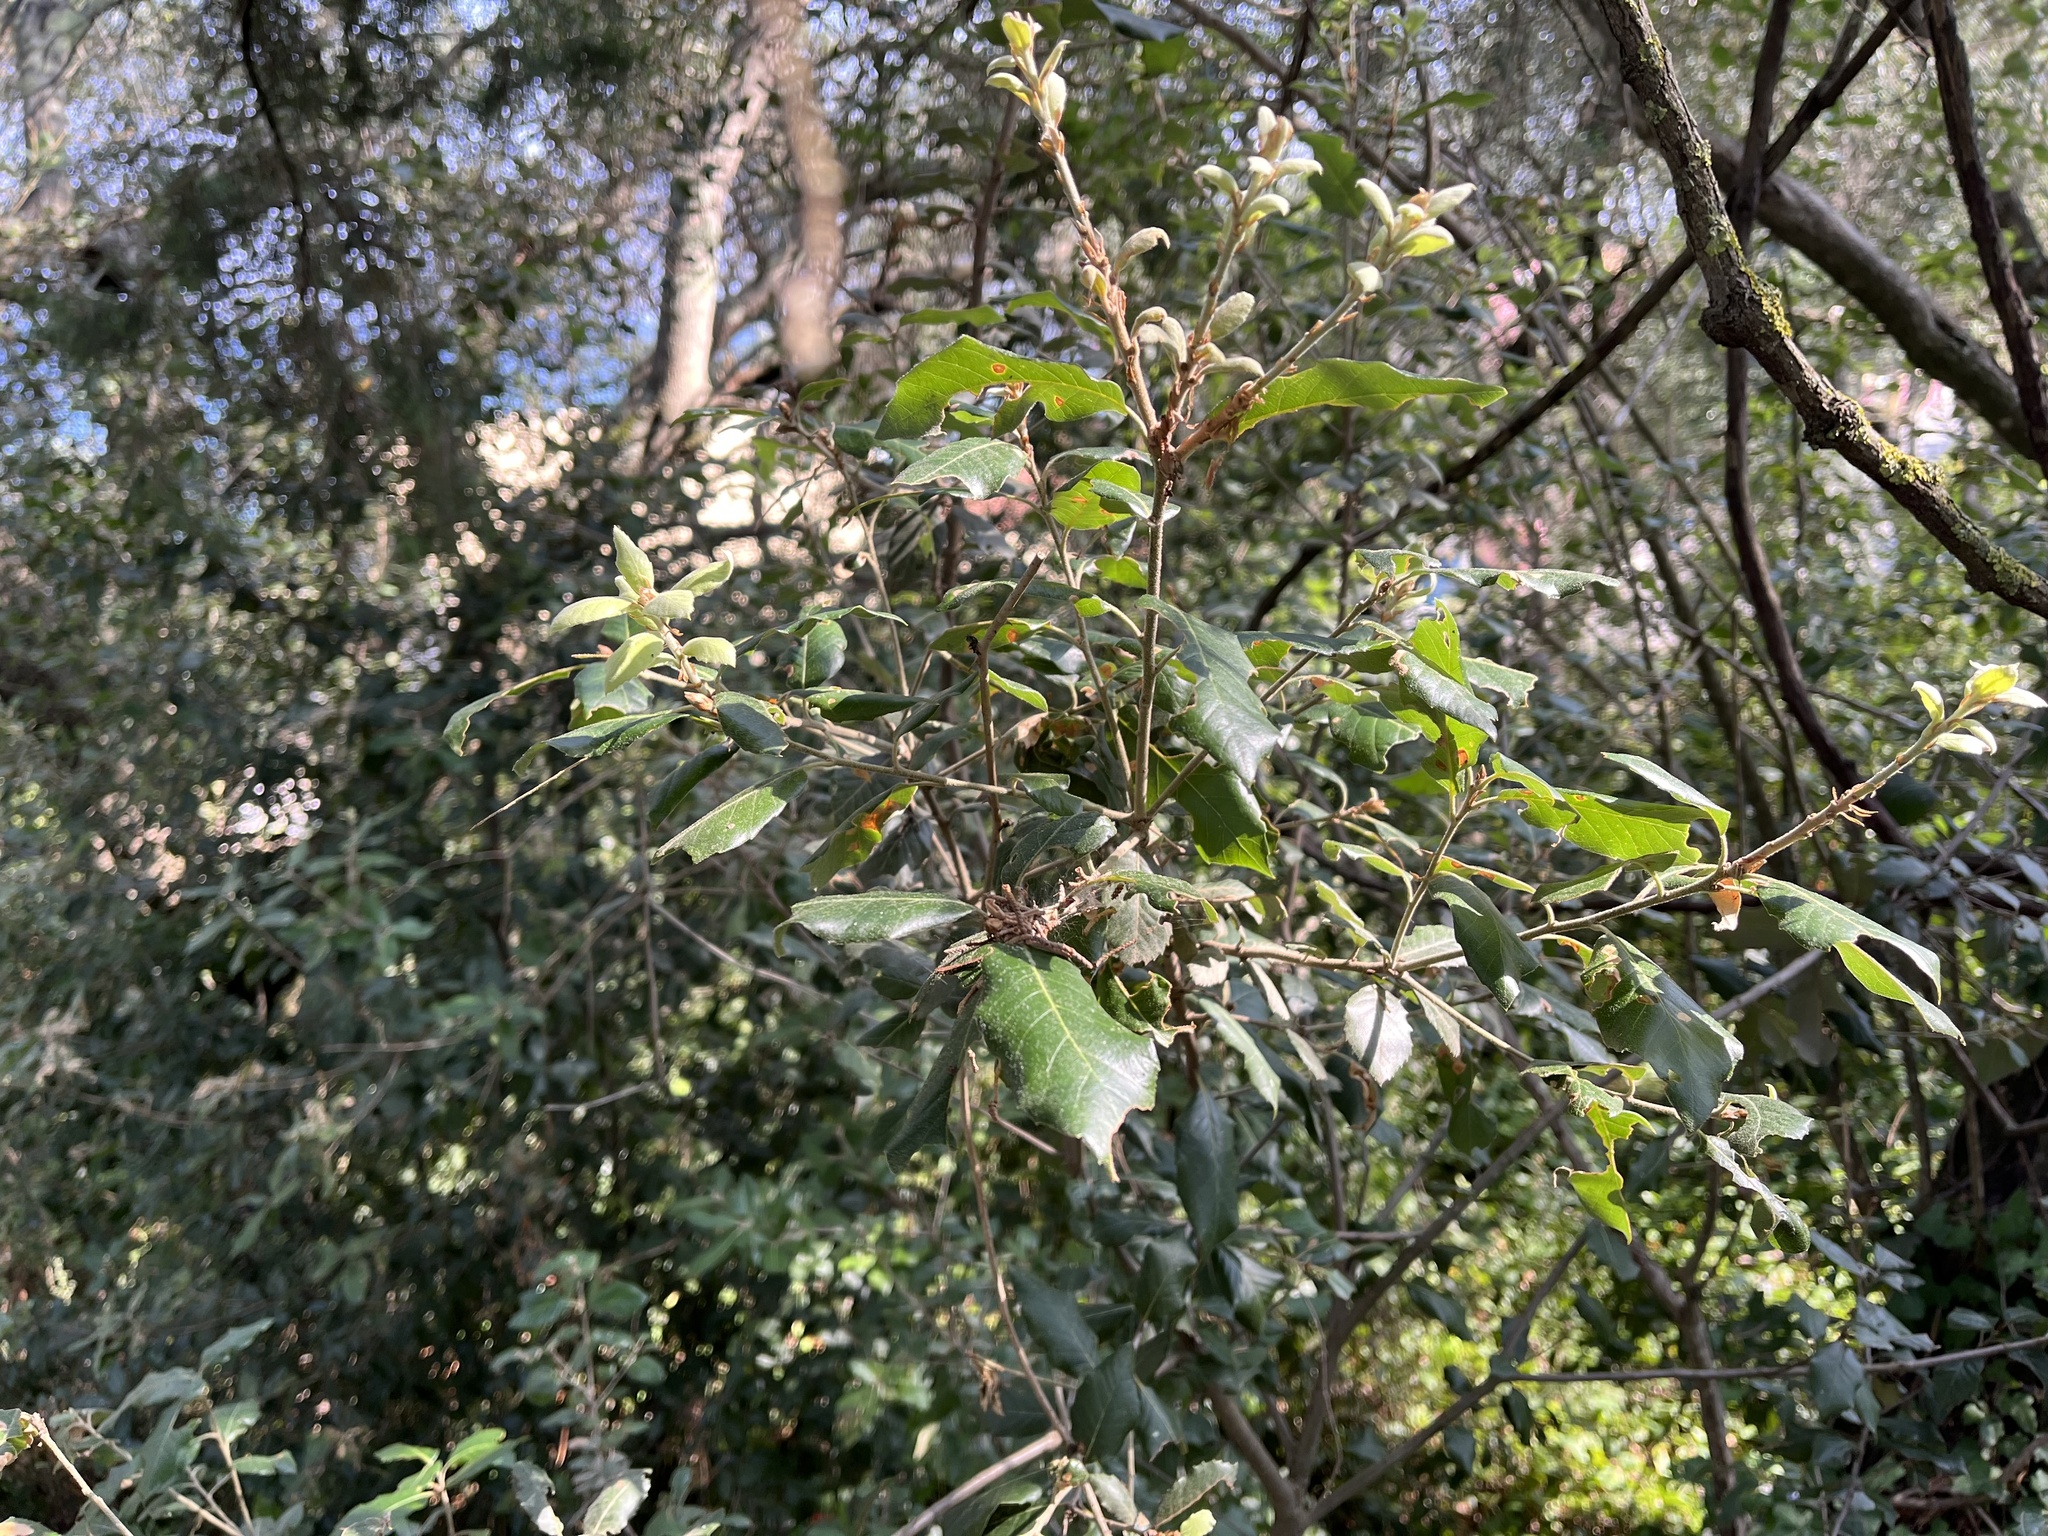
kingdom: Plantae
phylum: Tracheophyta
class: Magnoliopsida
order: Fagales
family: Fagaceae
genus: Quercus
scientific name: Quercus ilex
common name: Evergreen oak
